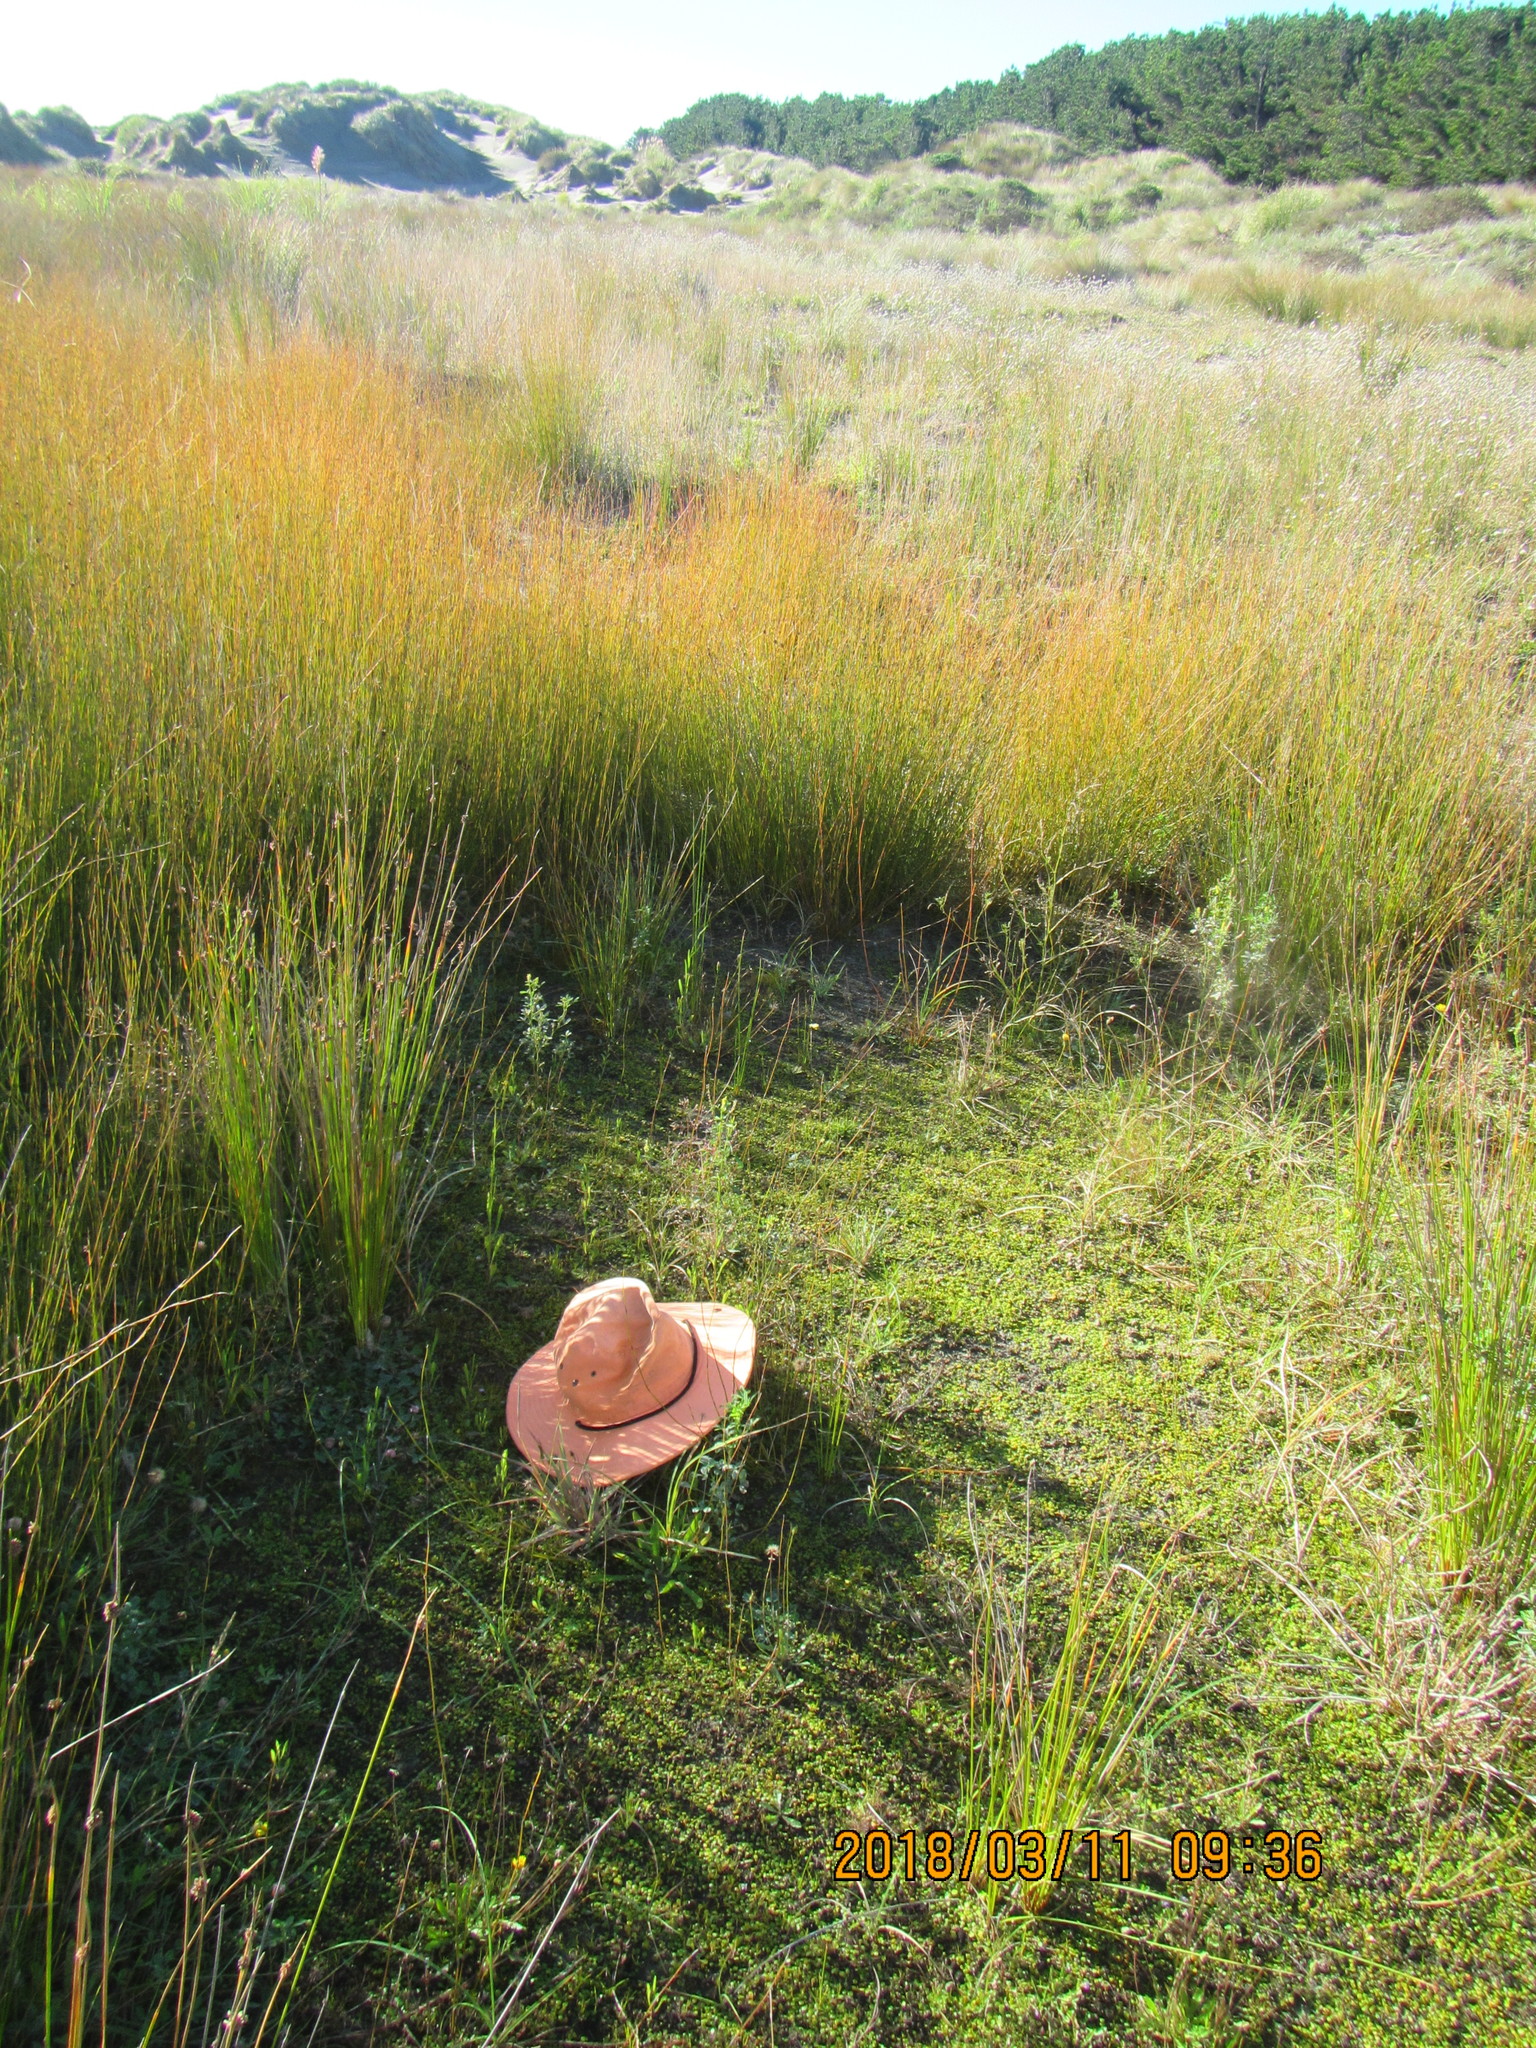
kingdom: Plantae
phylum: Tracheophyta
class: Magnoliopsida
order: Asterales
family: Goodeniaceae
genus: Goodenia
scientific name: Goodenia heenanii
